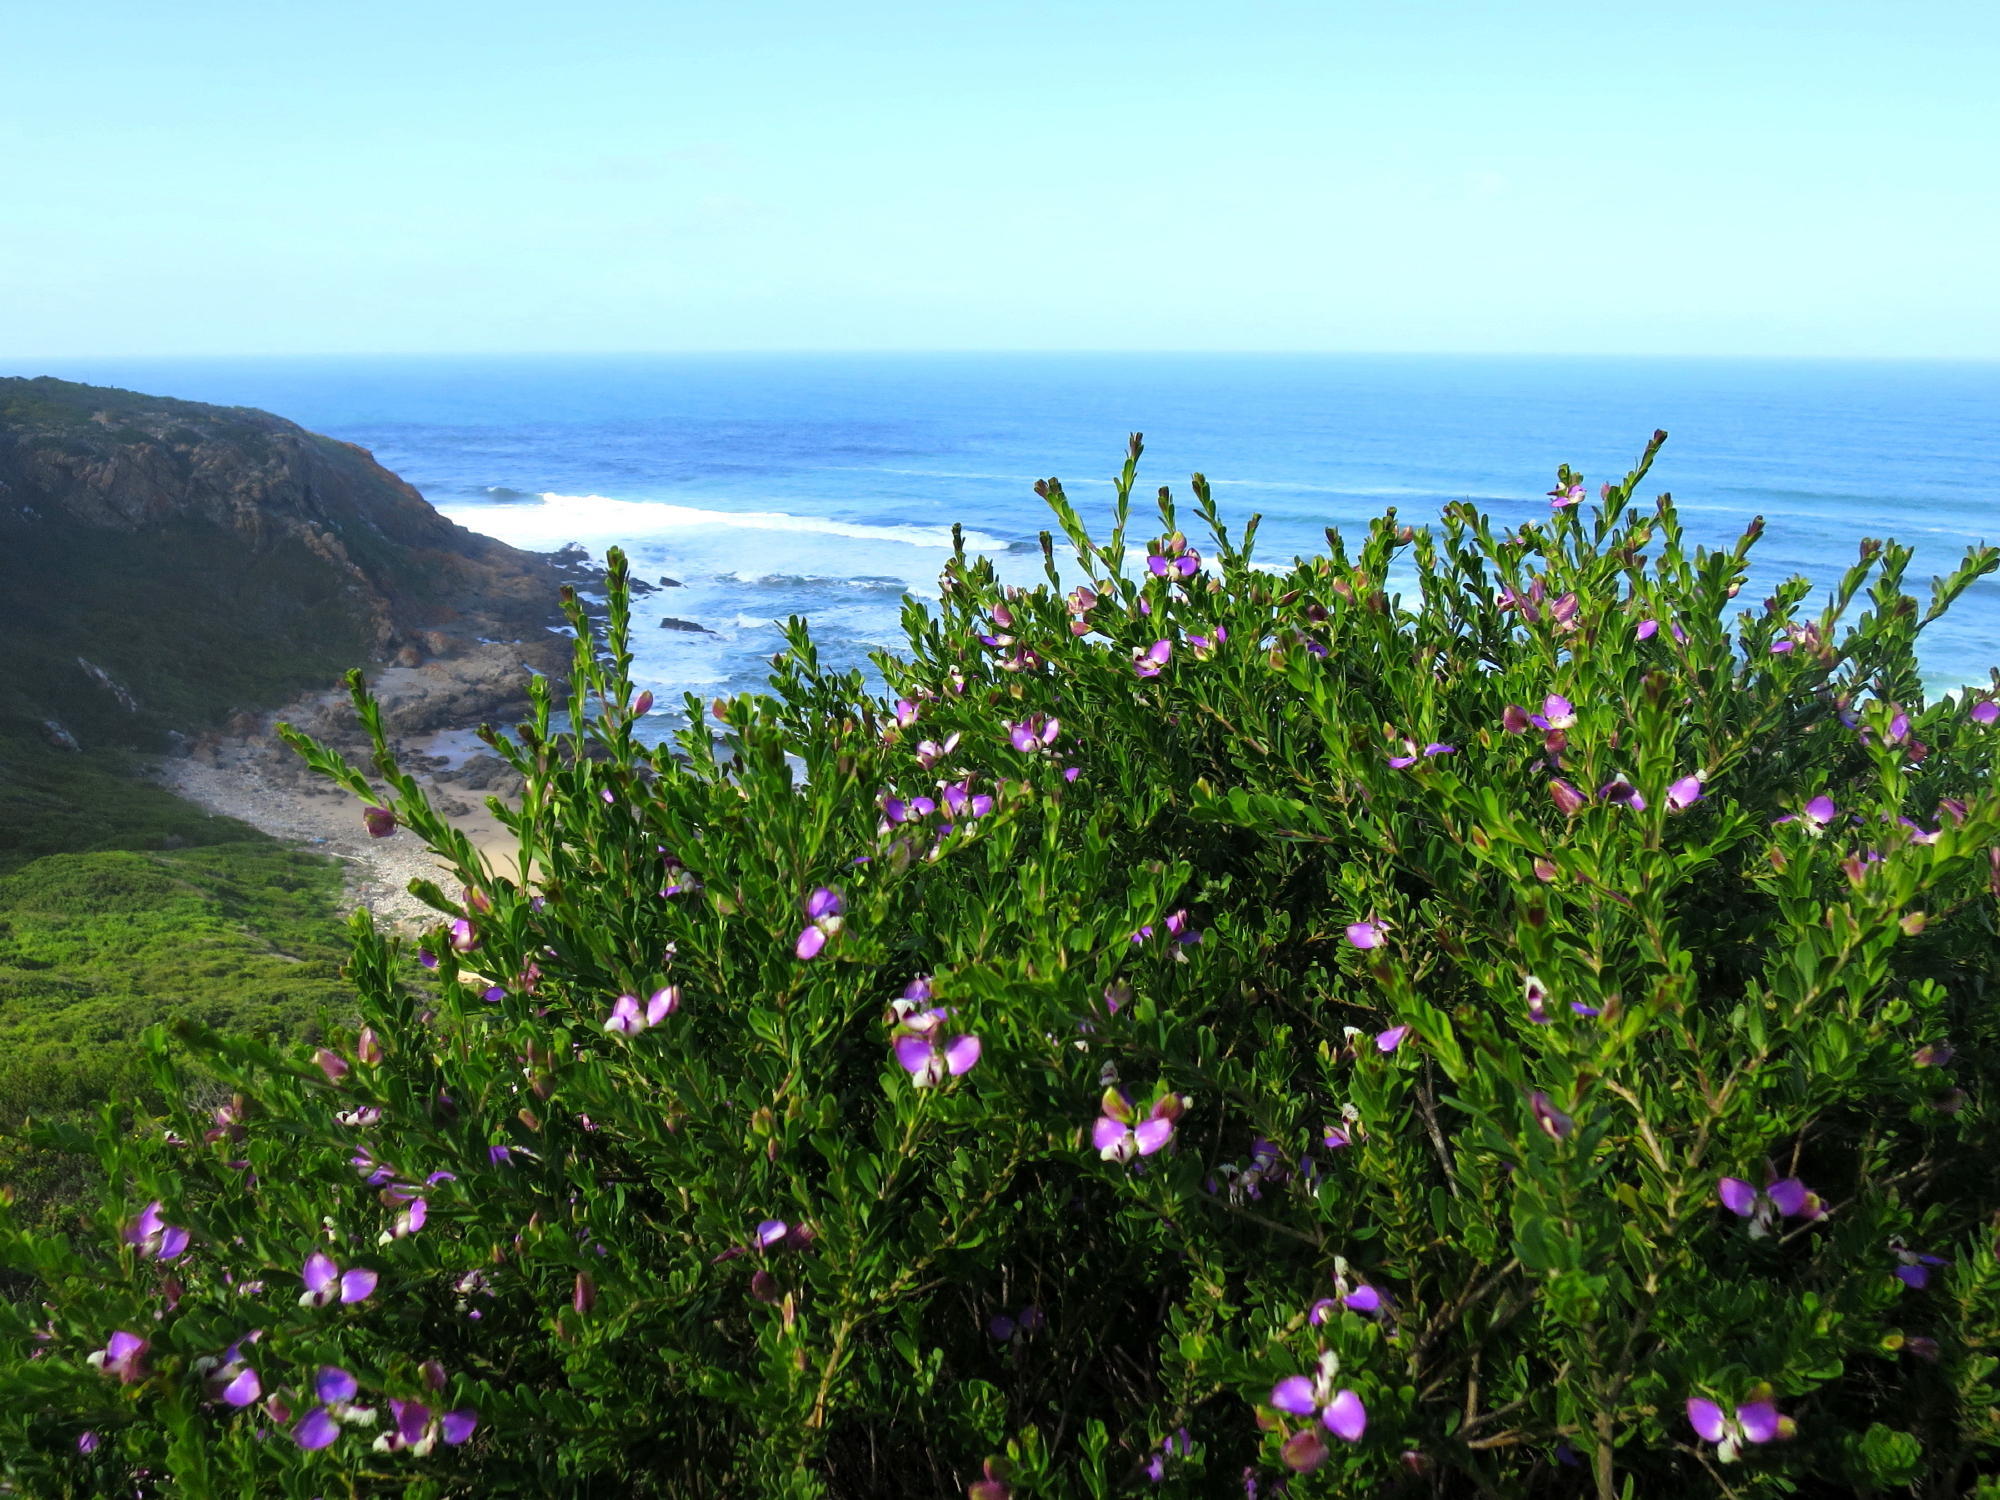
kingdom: Plantae
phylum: Tracheophyta
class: Magnoliopsida
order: Fabales
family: Polygalaceae
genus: Polygala
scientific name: Polygala myrtifolia
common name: Myrtle-leaf milkwort
